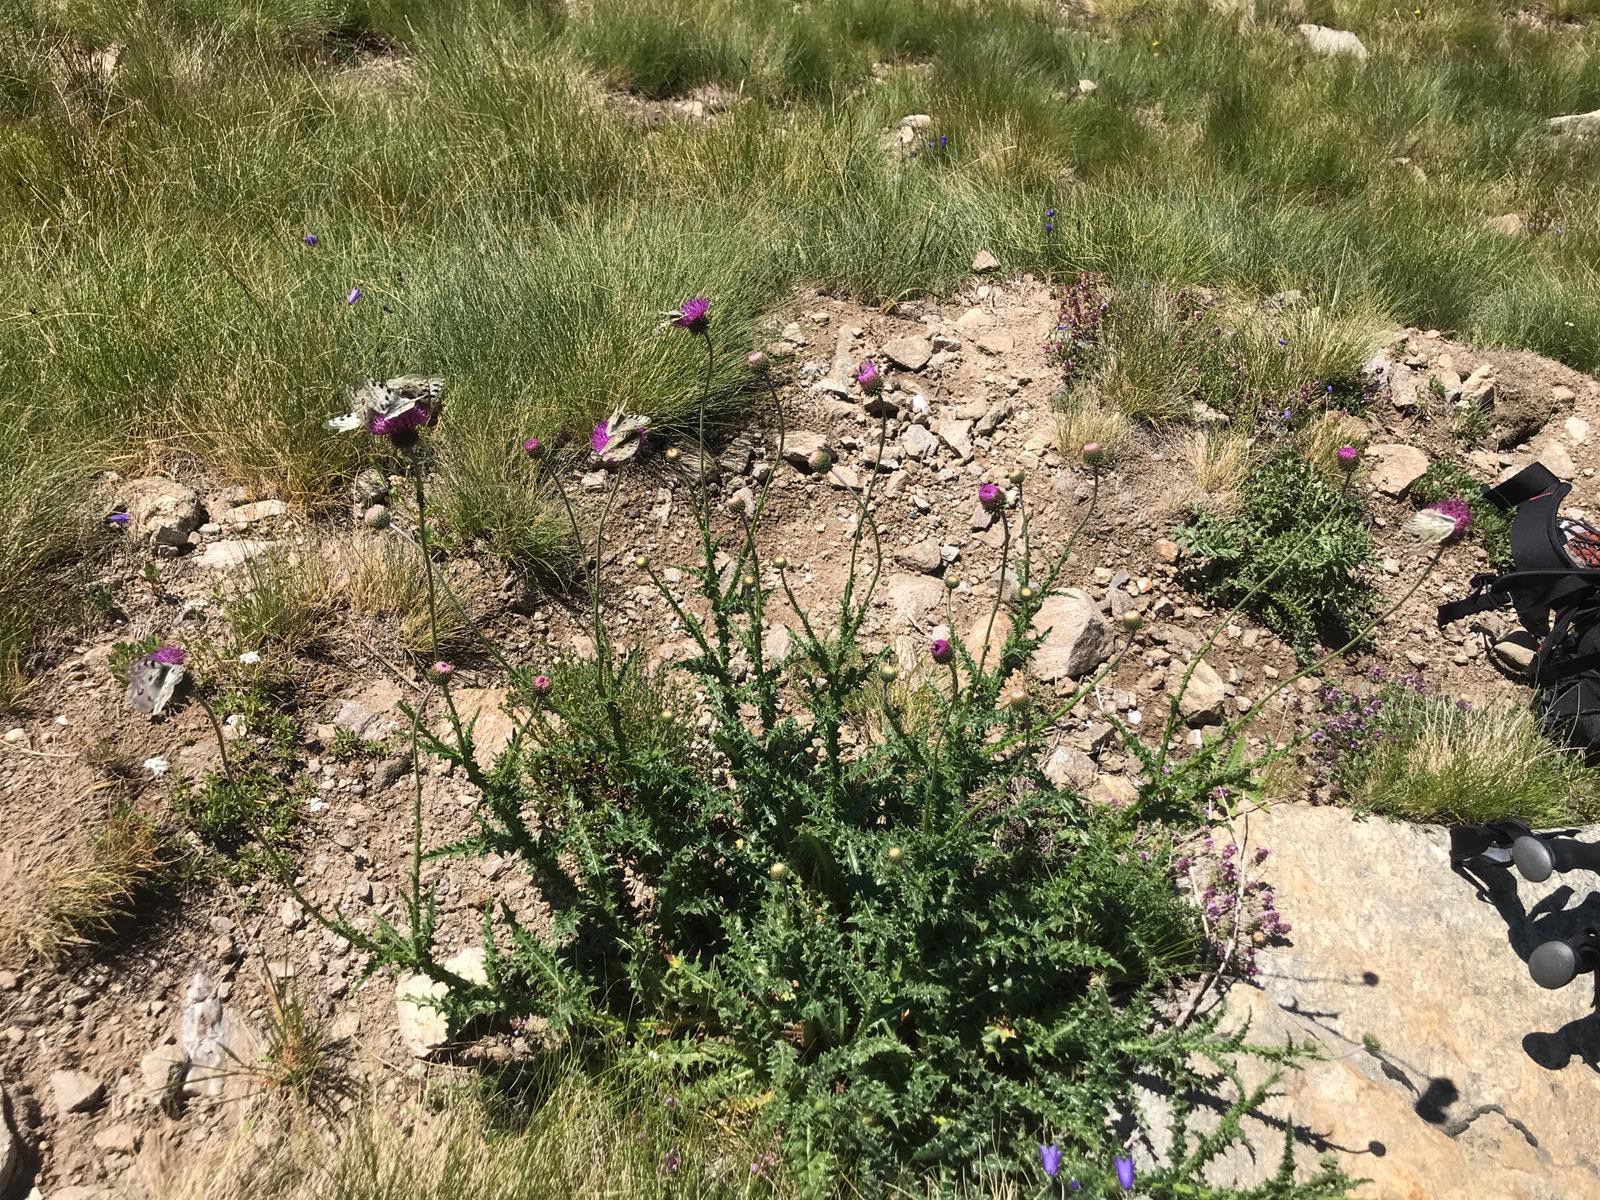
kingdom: Animalia
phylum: Arthropoda
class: Insecta
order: Lepidoptera
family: Papilionidae
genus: Parnassius
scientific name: Parnassius apollo
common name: Apollo
